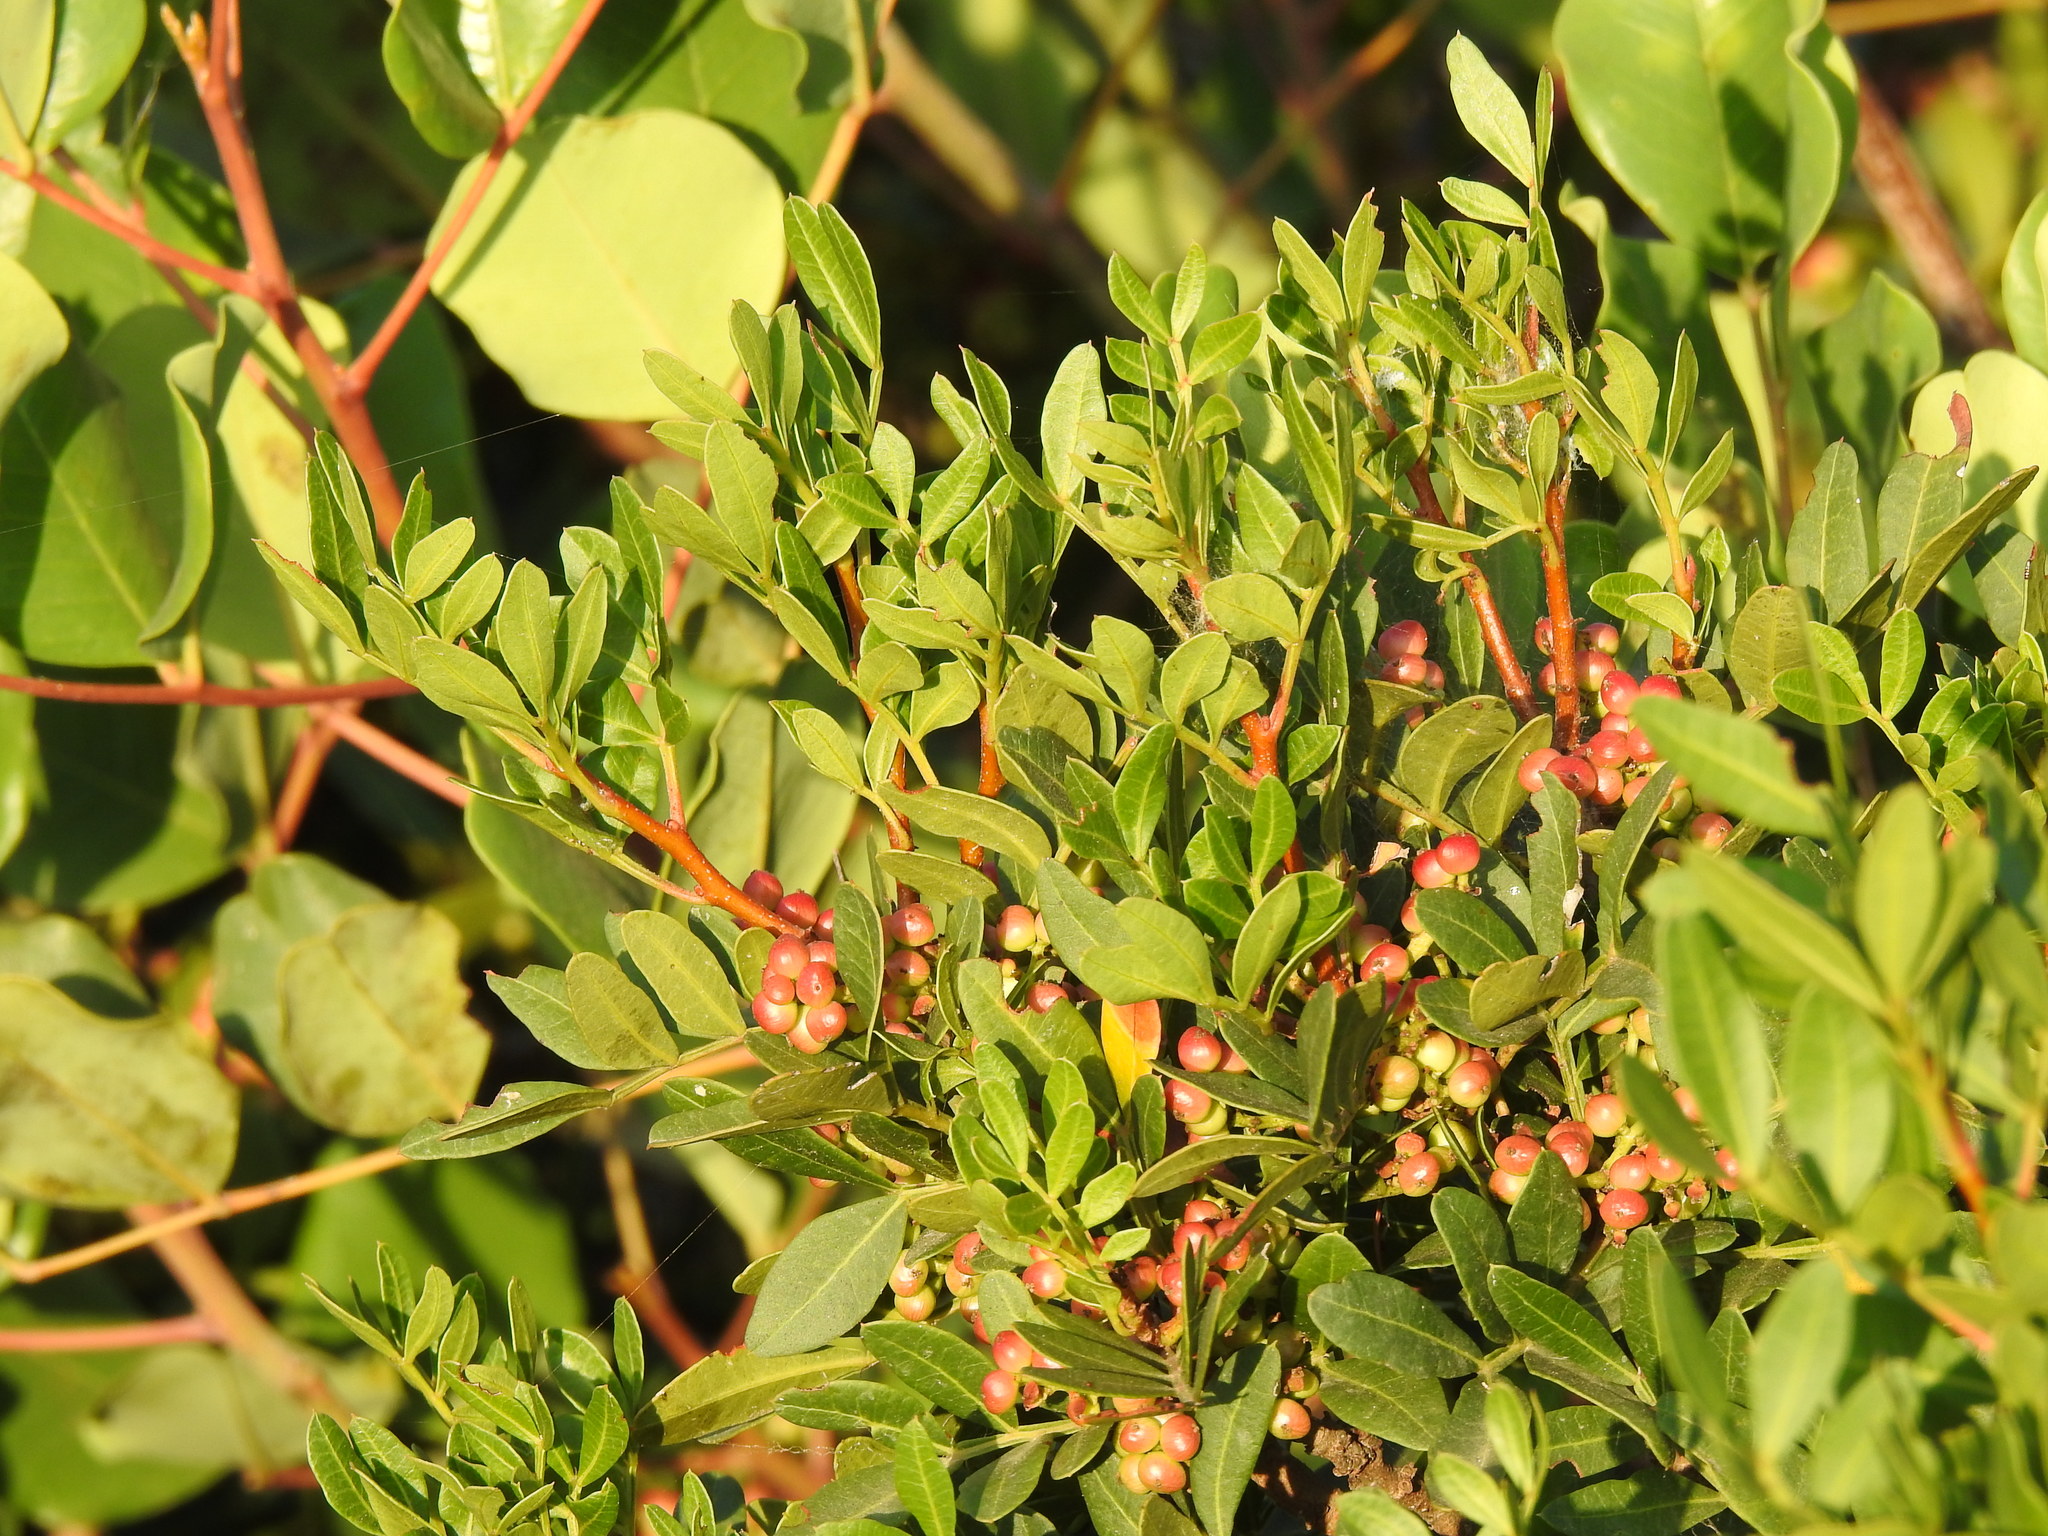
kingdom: Plantae
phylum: Tracheophyta
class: Magnoliopsida
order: Sapindales
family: Anacardiaceae
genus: Pistacia
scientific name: Pistacia lentiscus
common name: Lentisk
